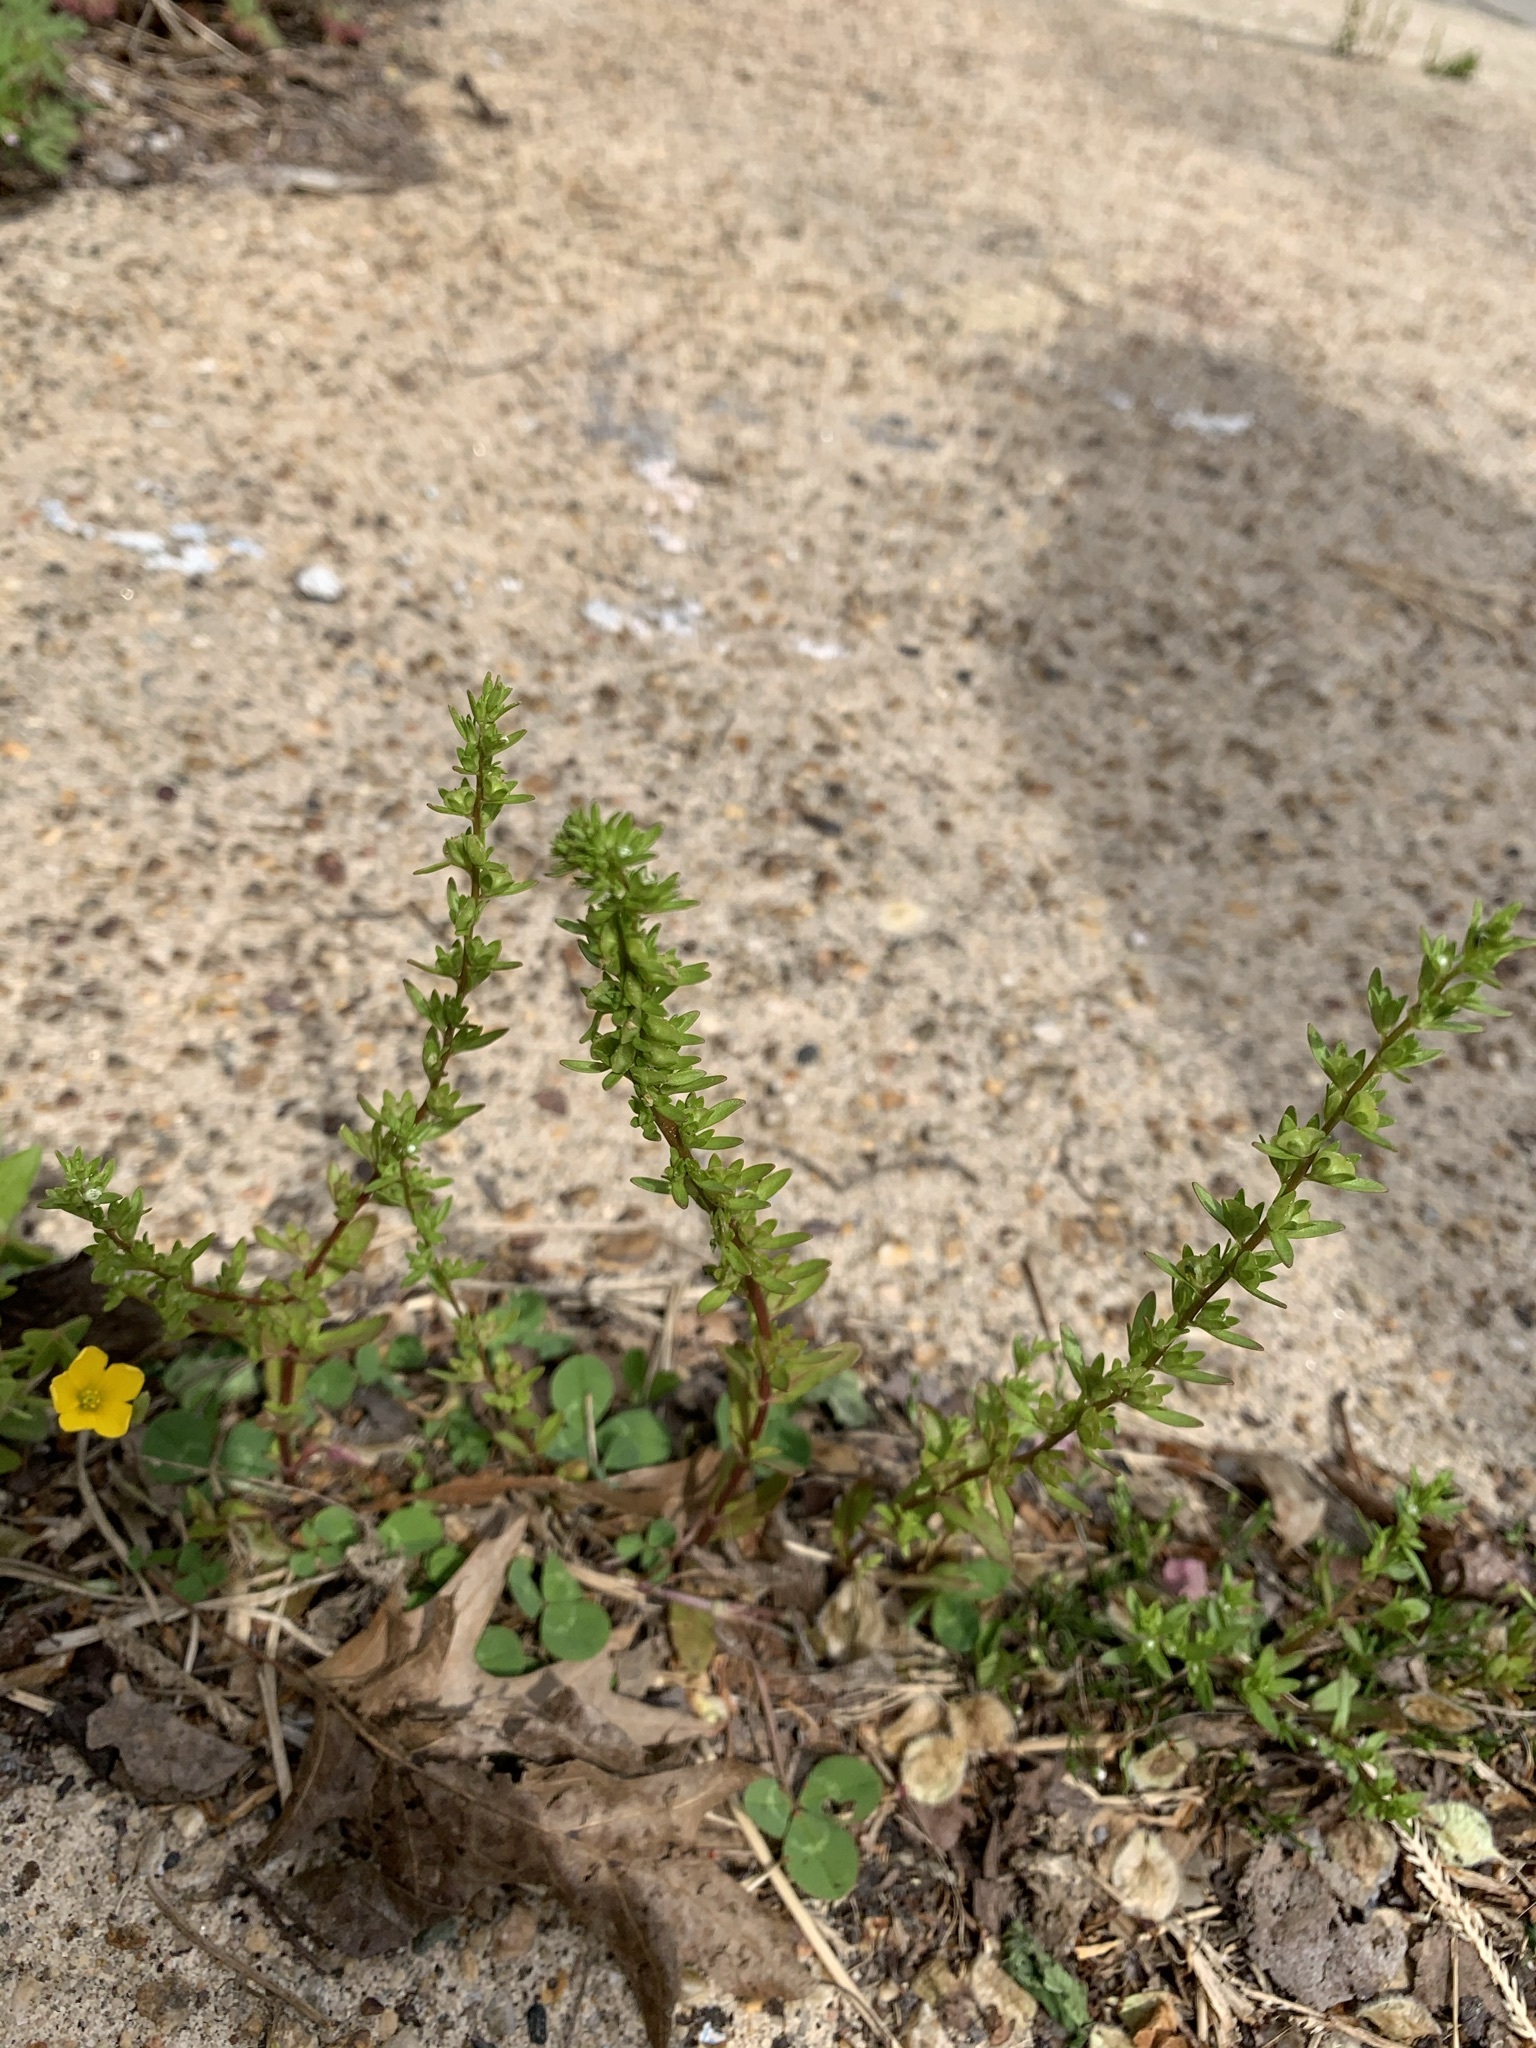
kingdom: Plantae
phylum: Tracheophyta
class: Magnoliopsida
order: Lamiales
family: Plantaginaceae
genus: Veronica
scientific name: Veronica peregrina
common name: Neckweed
